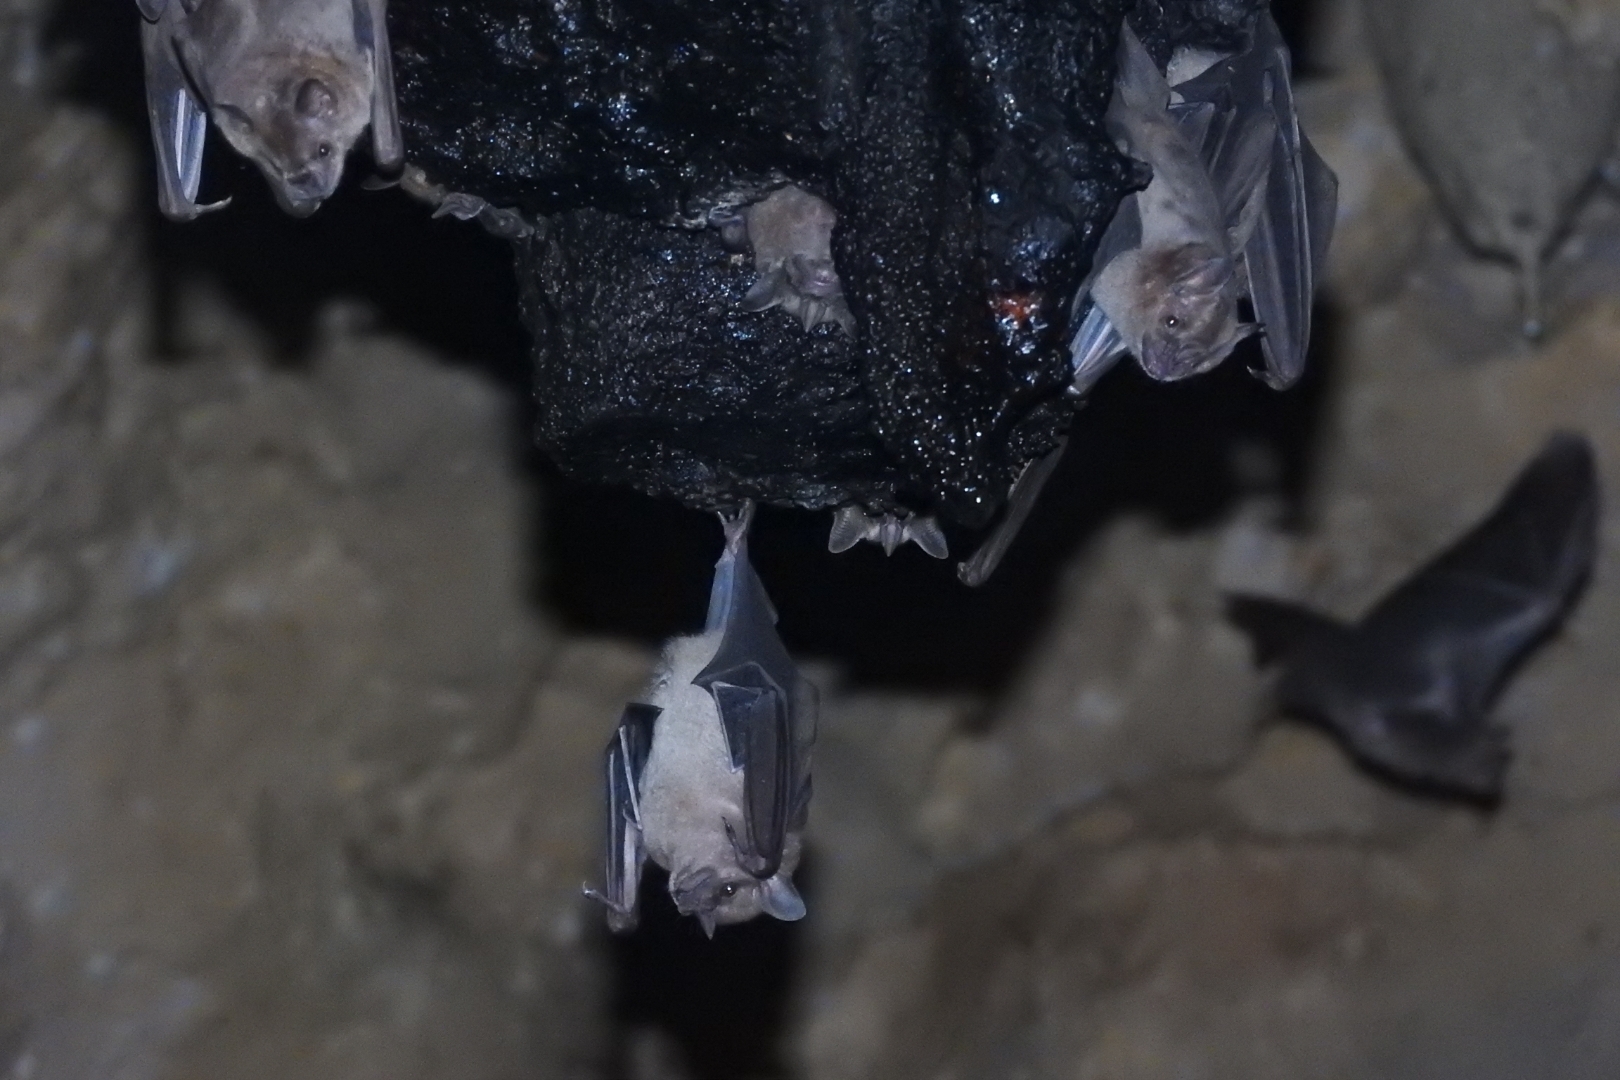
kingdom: Animalia
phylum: Chordata
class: Mammalia
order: Chiroptera
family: Phyllostomidae
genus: Artibeus
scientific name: Artibeus jamaicensis
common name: Jamaican fruit-eating bat
